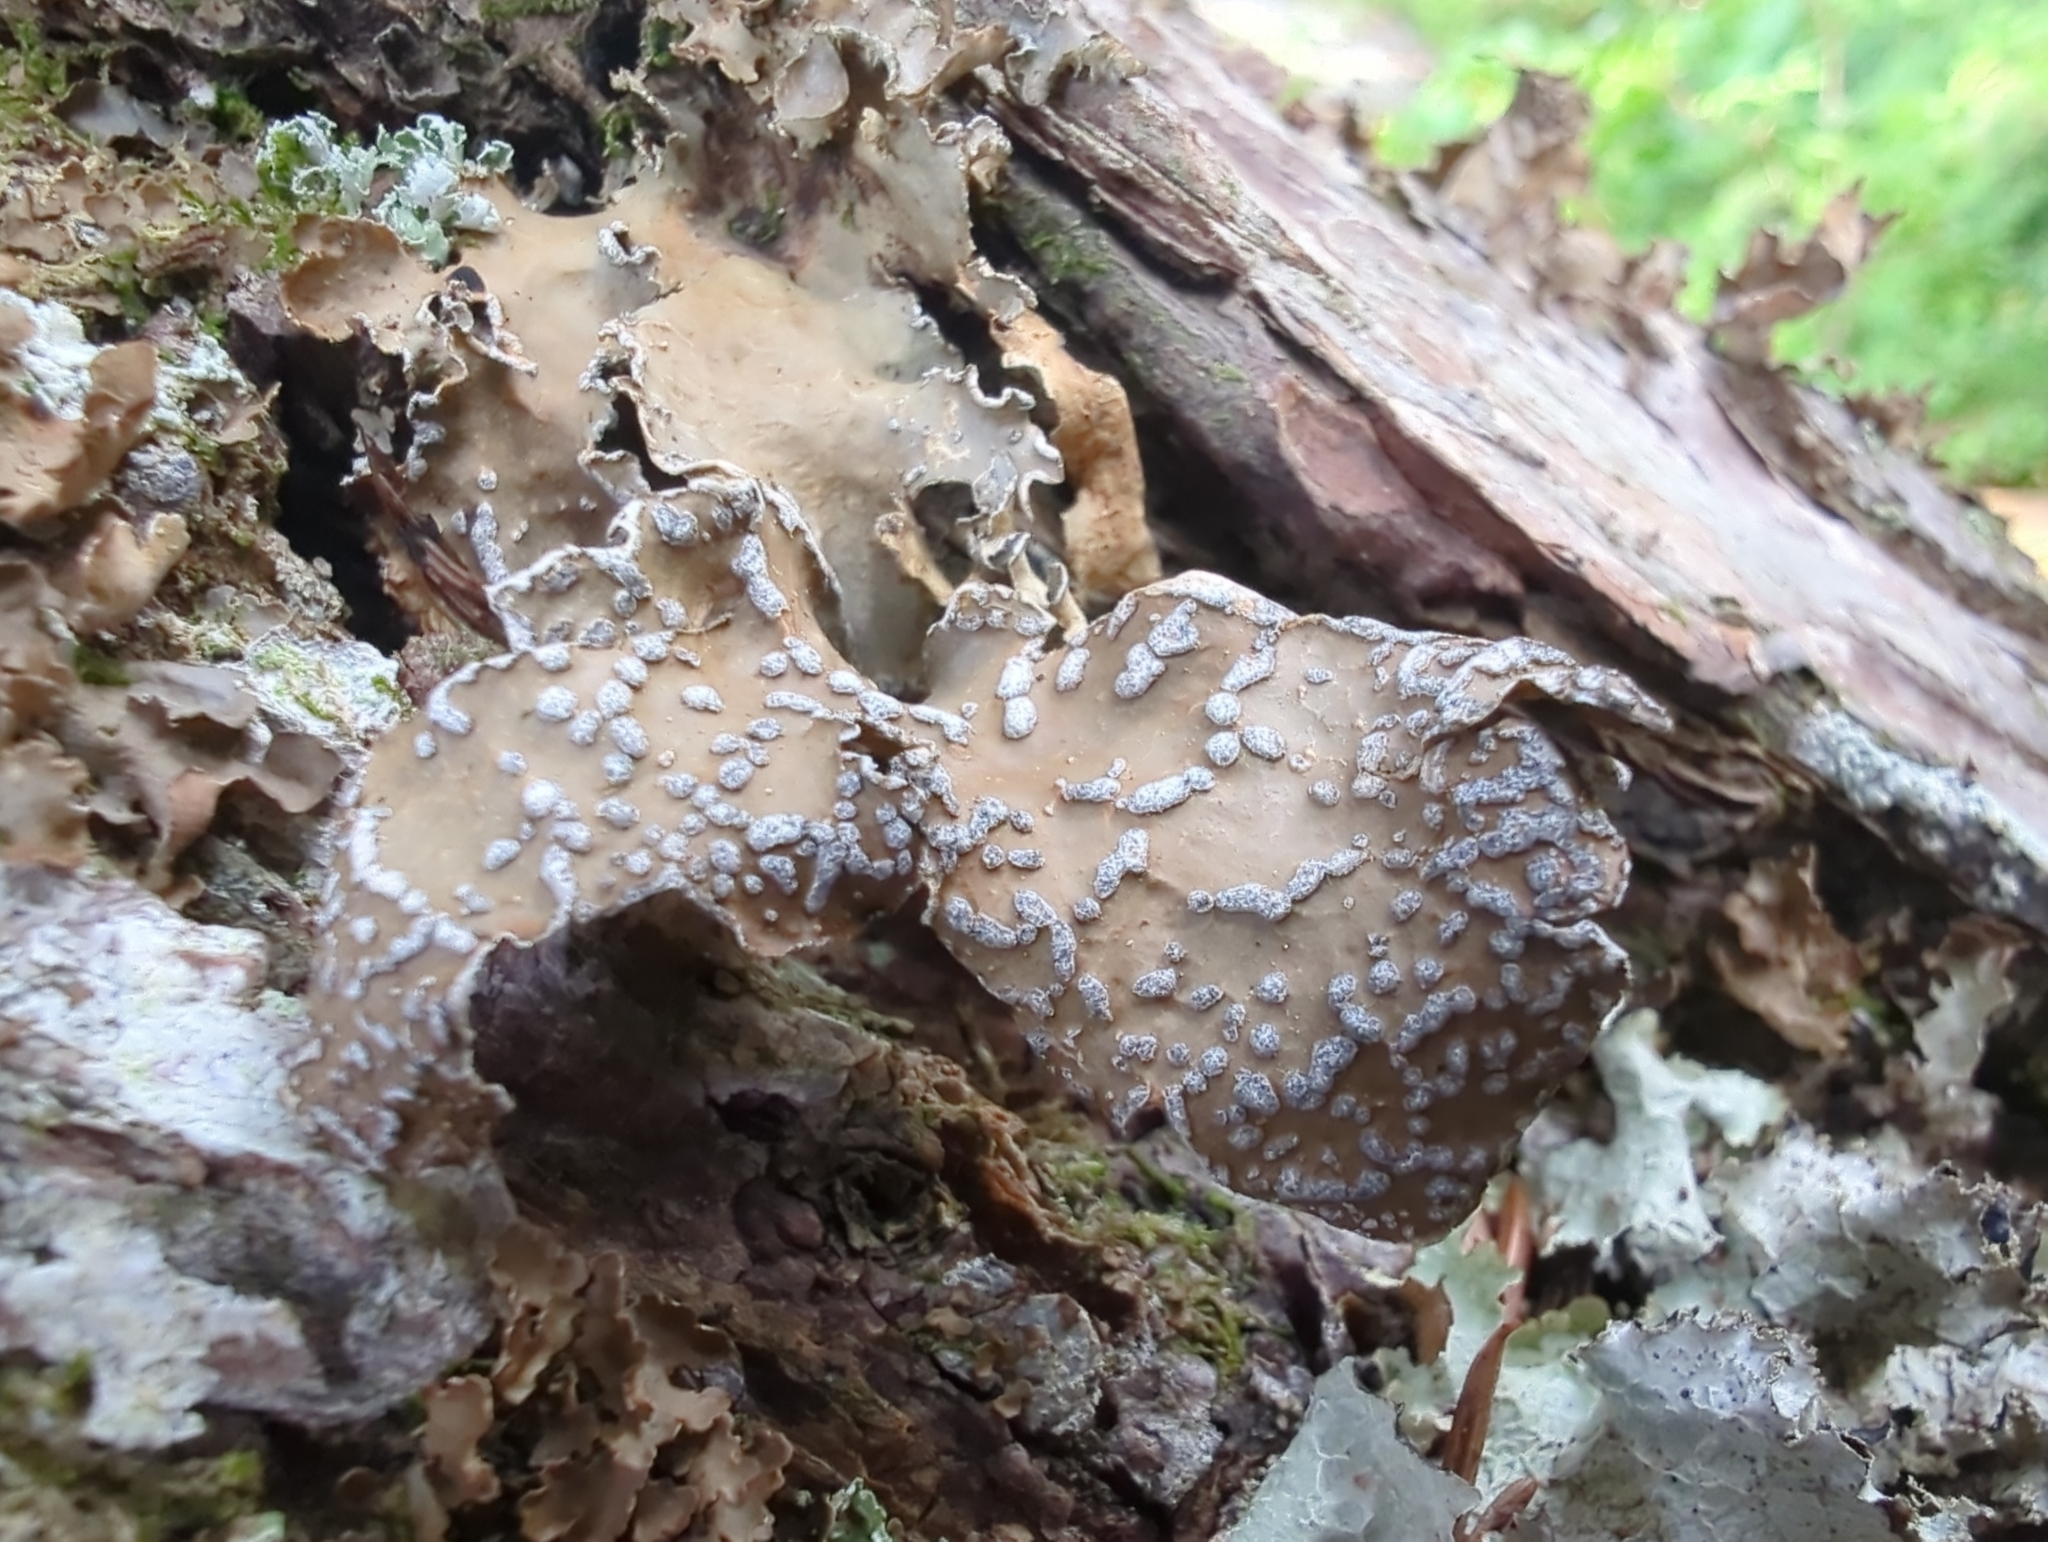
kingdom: Fungi
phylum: Ascomycota
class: Lecanoromycetes
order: Peltigerales
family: Lobariaceae
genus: Lobaria
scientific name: Lobaria anomala
